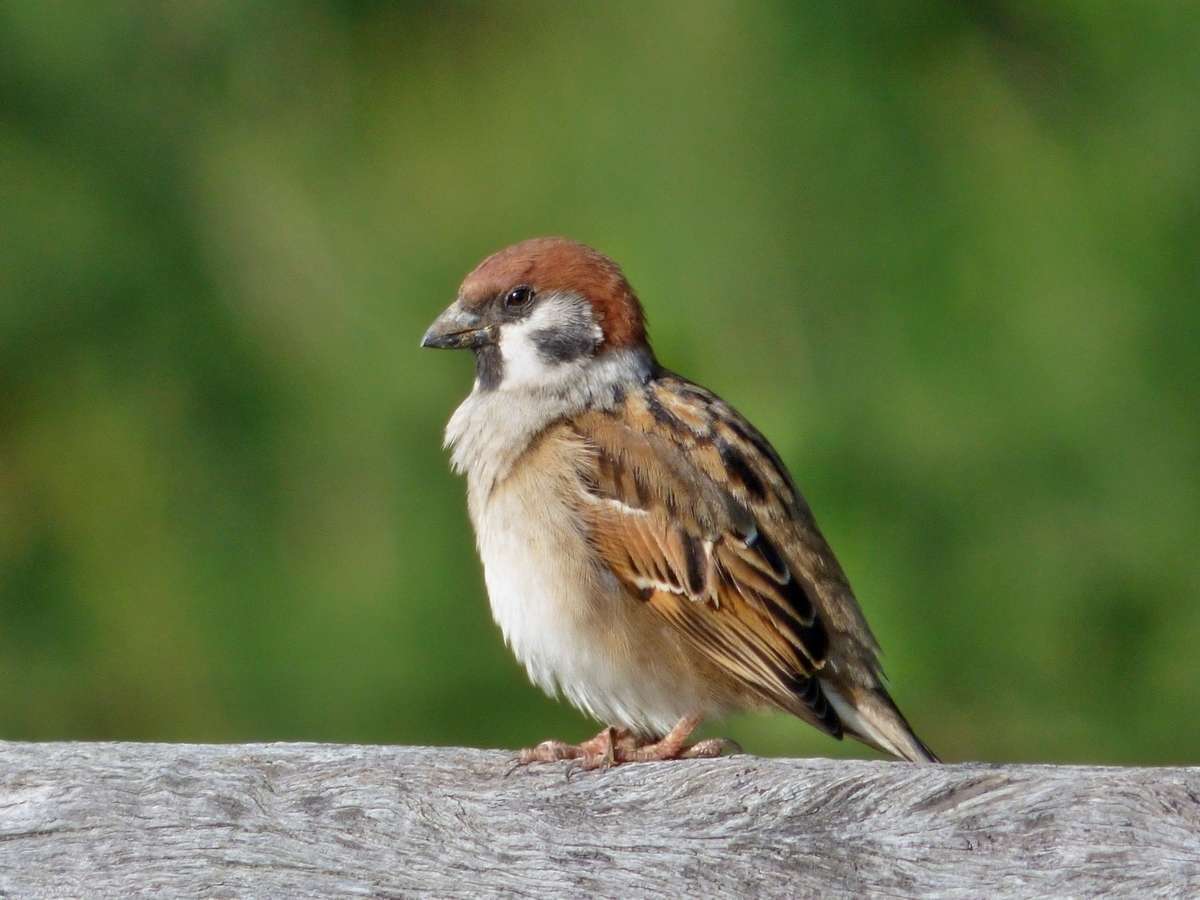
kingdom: Animalia
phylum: Chordata
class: Aves
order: Passeriformes
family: Passeridae
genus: Passer
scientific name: Passer montanus
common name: Eurasian tree sparrow
